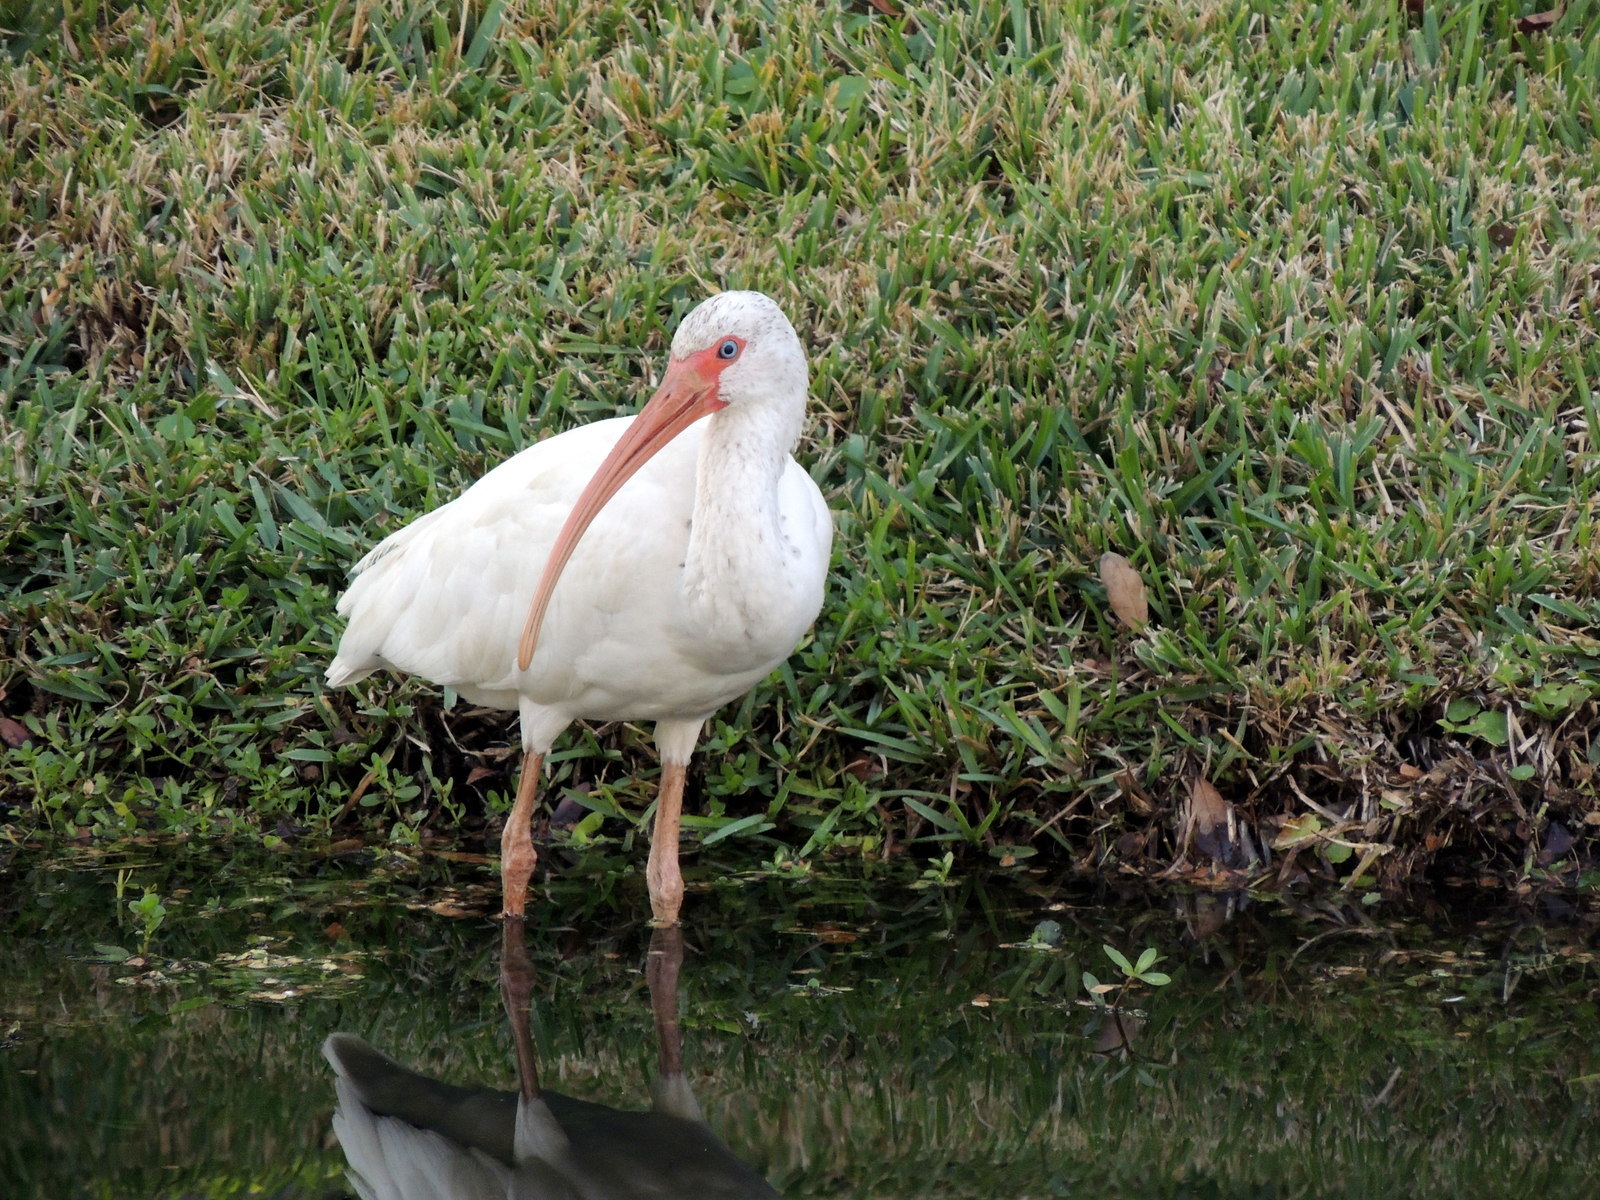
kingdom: Animalia
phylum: Chordata
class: Aves
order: Pelecaniformes
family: Threskiornithidae
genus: Eudocimus
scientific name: Eudocimus albus
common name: White ibis
